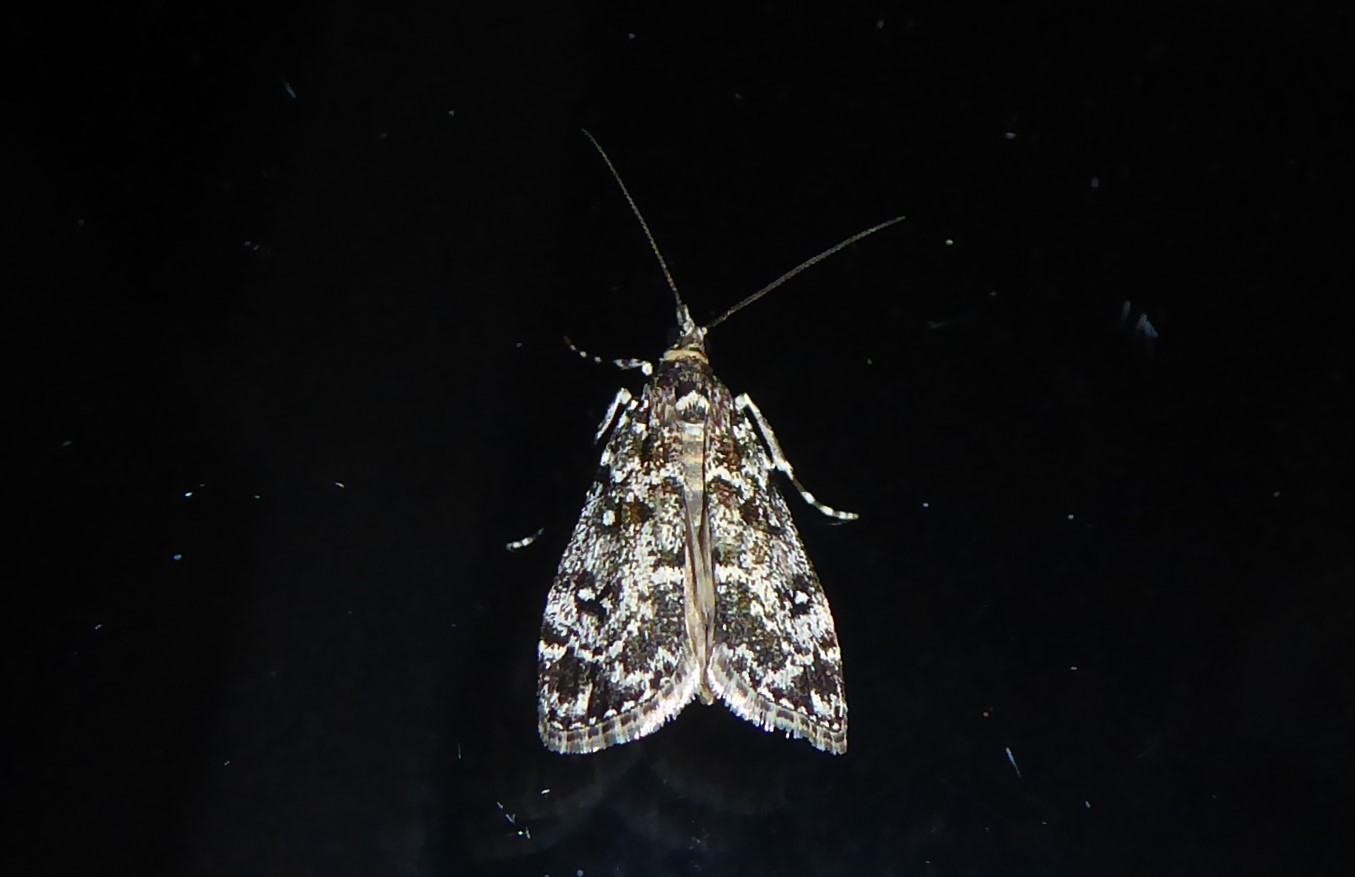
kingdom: Animalia
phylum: Arthropoda
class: Insecta
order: Lepidoptera
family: Crambidae
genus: Eudonia
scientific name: Eudonia philerga
